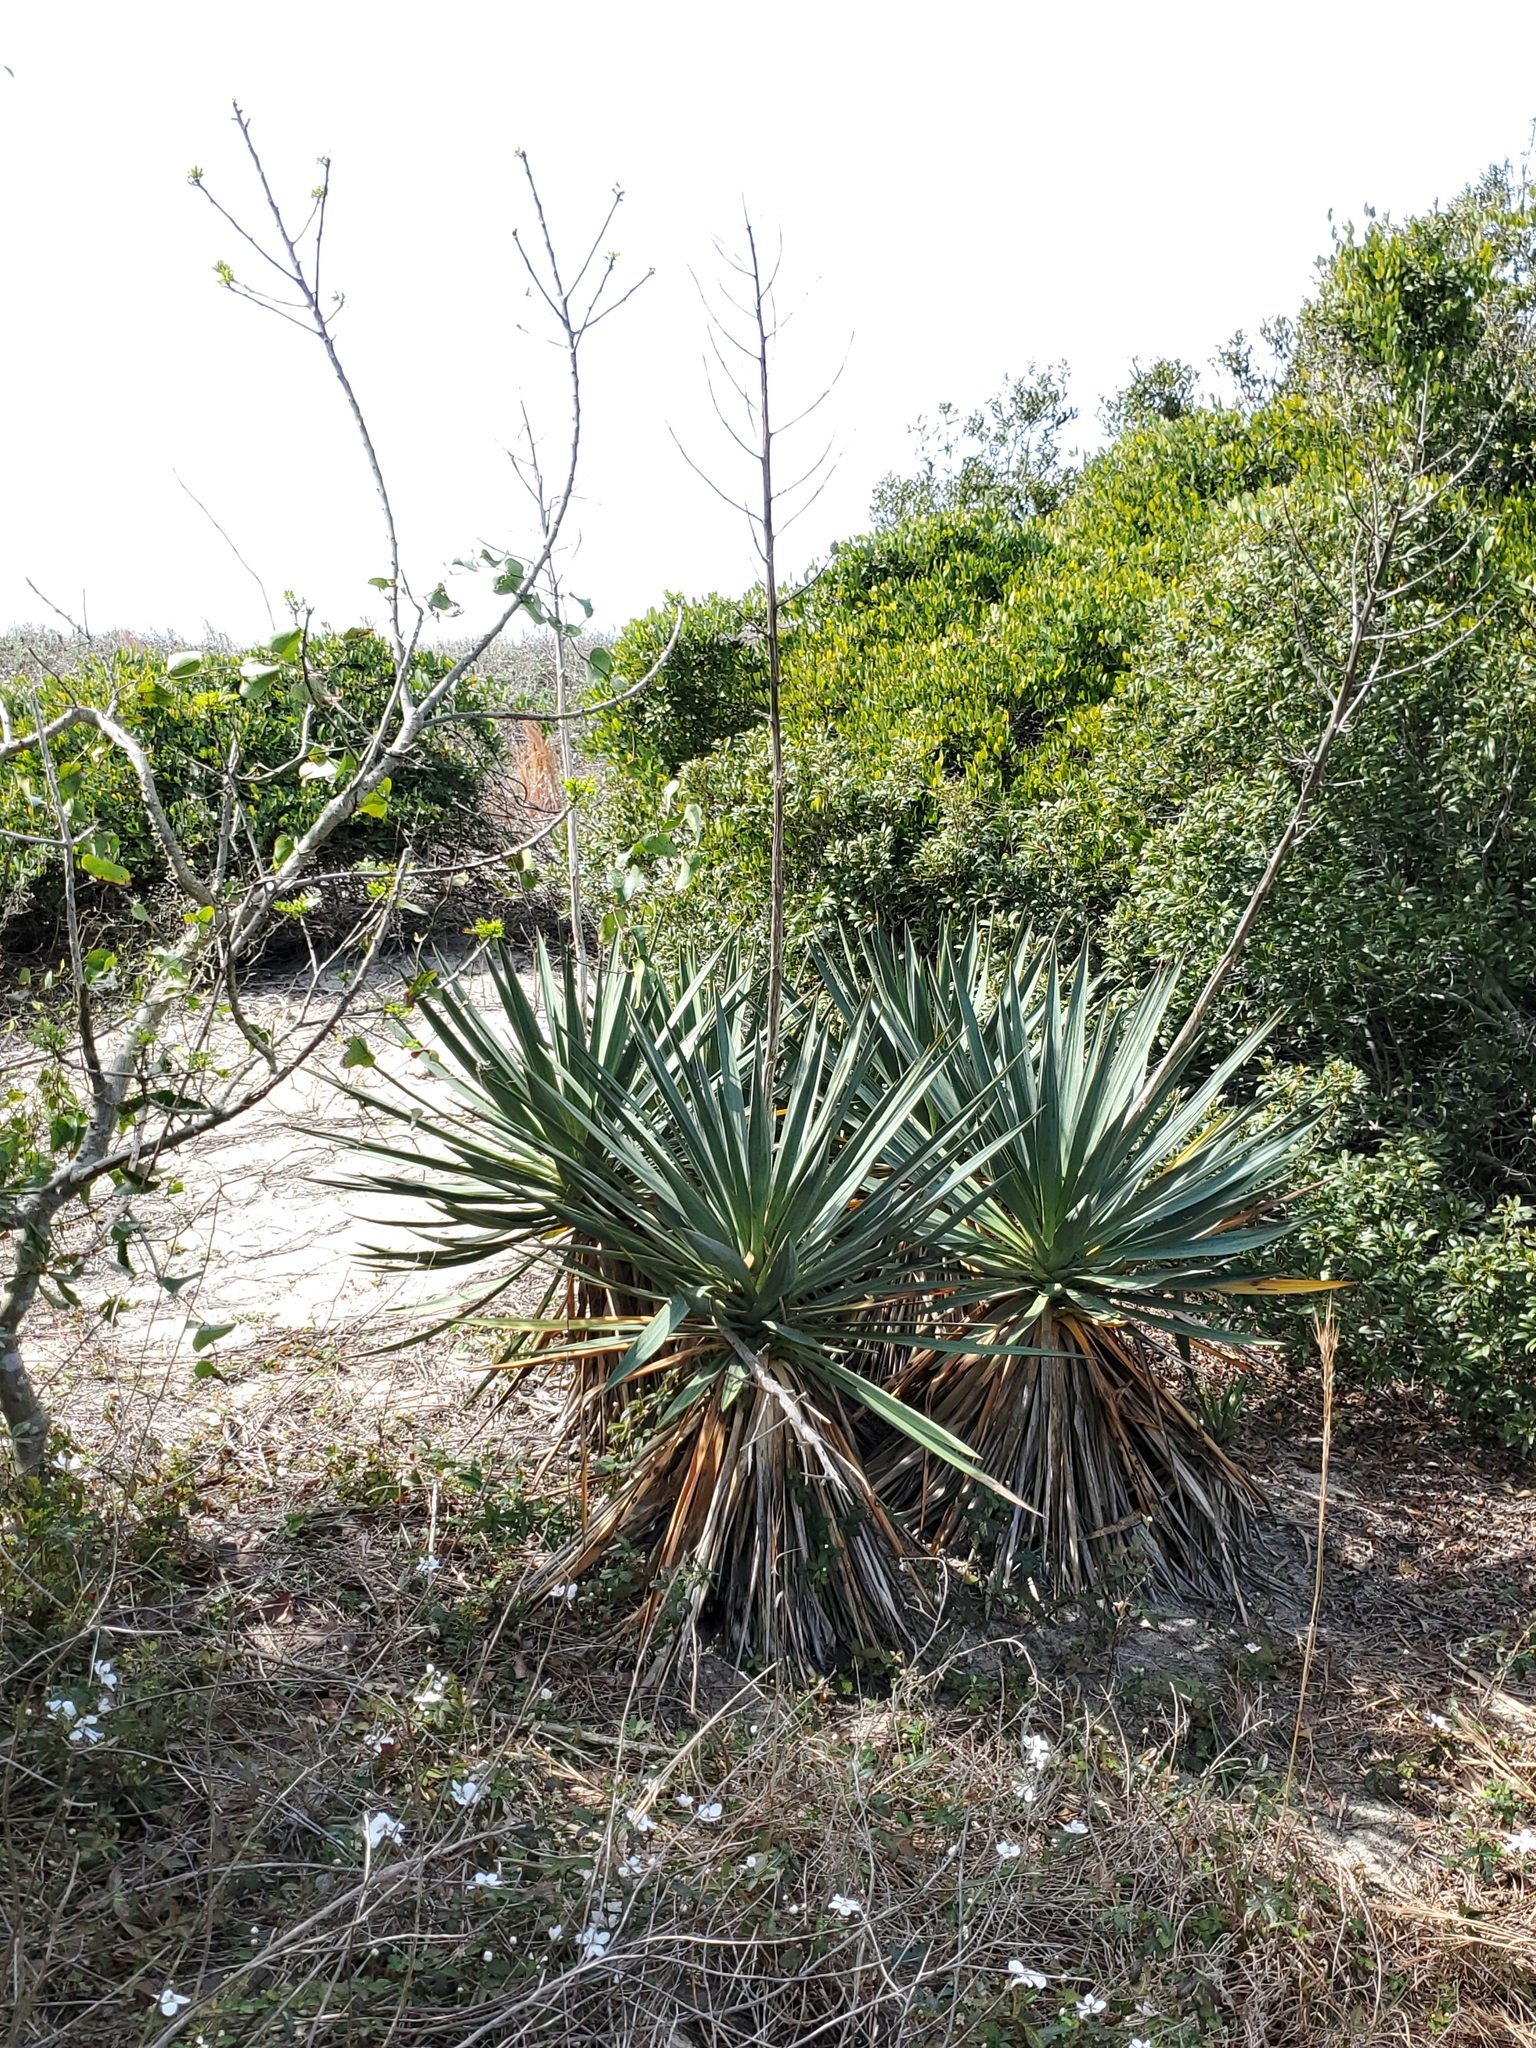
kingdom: Plantae
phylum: Tracheophyta
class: Liliopsida
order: Asparagales
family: Asparagaceae
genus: Yucca
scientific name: Yucca gloriosa
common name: Spanish-dagger
